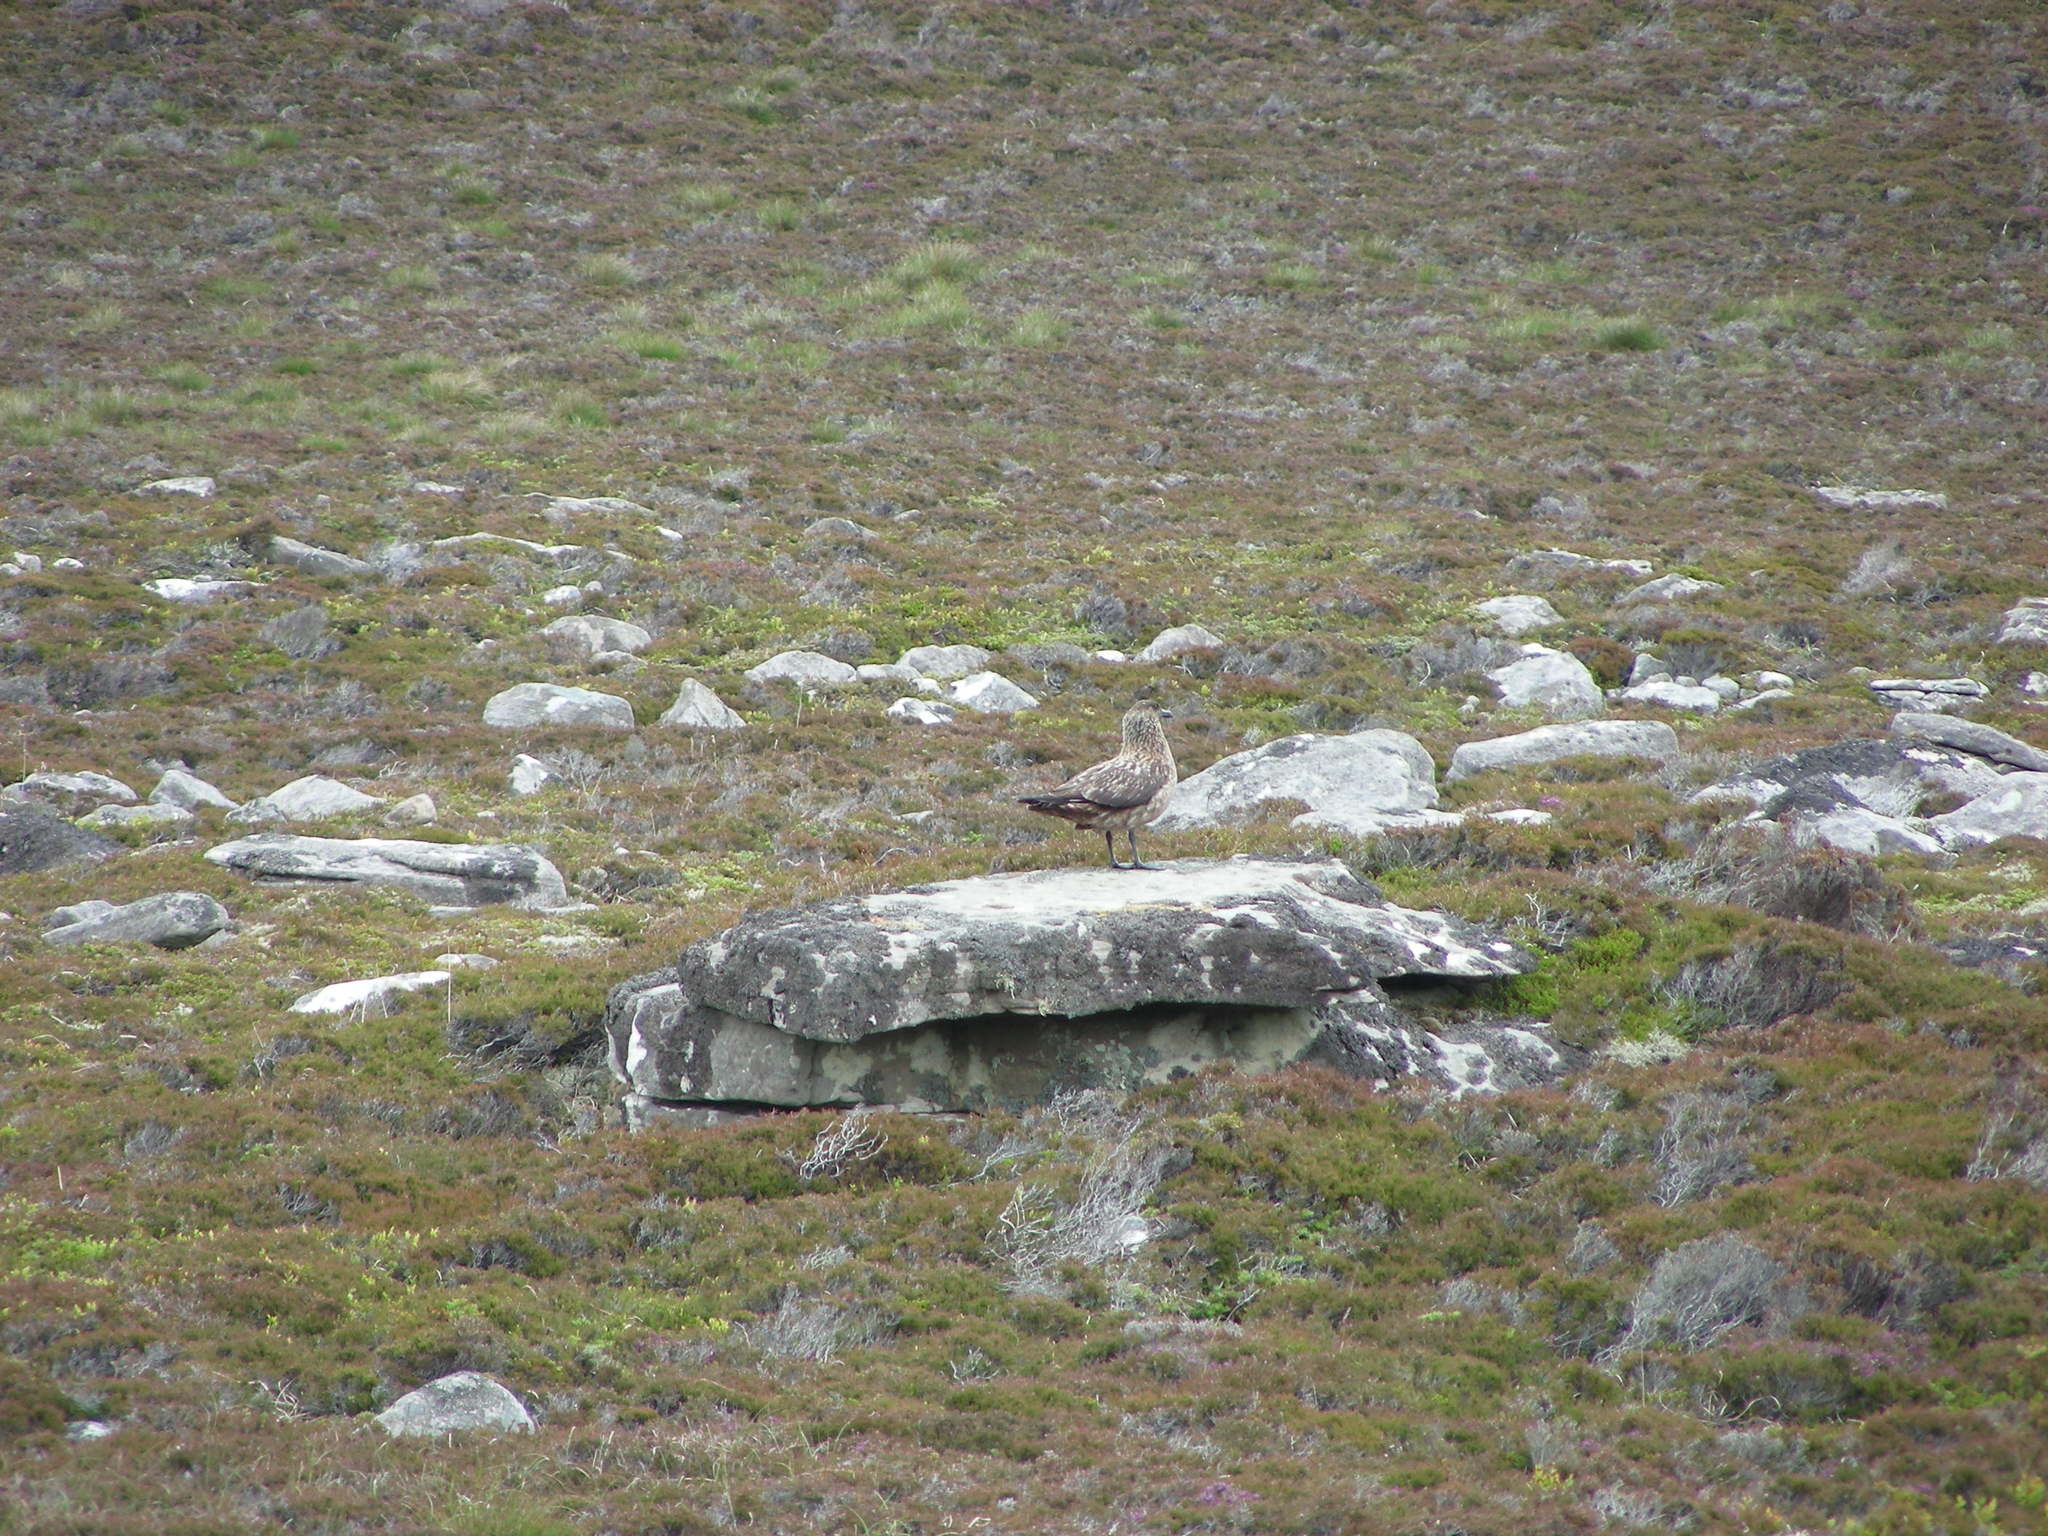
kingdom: Animalia
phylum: Chordata
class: Aves
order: Charadriiformes
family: Stercorariidae
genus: Stercorarius
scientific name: Stercorarius skua
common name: Great skua
